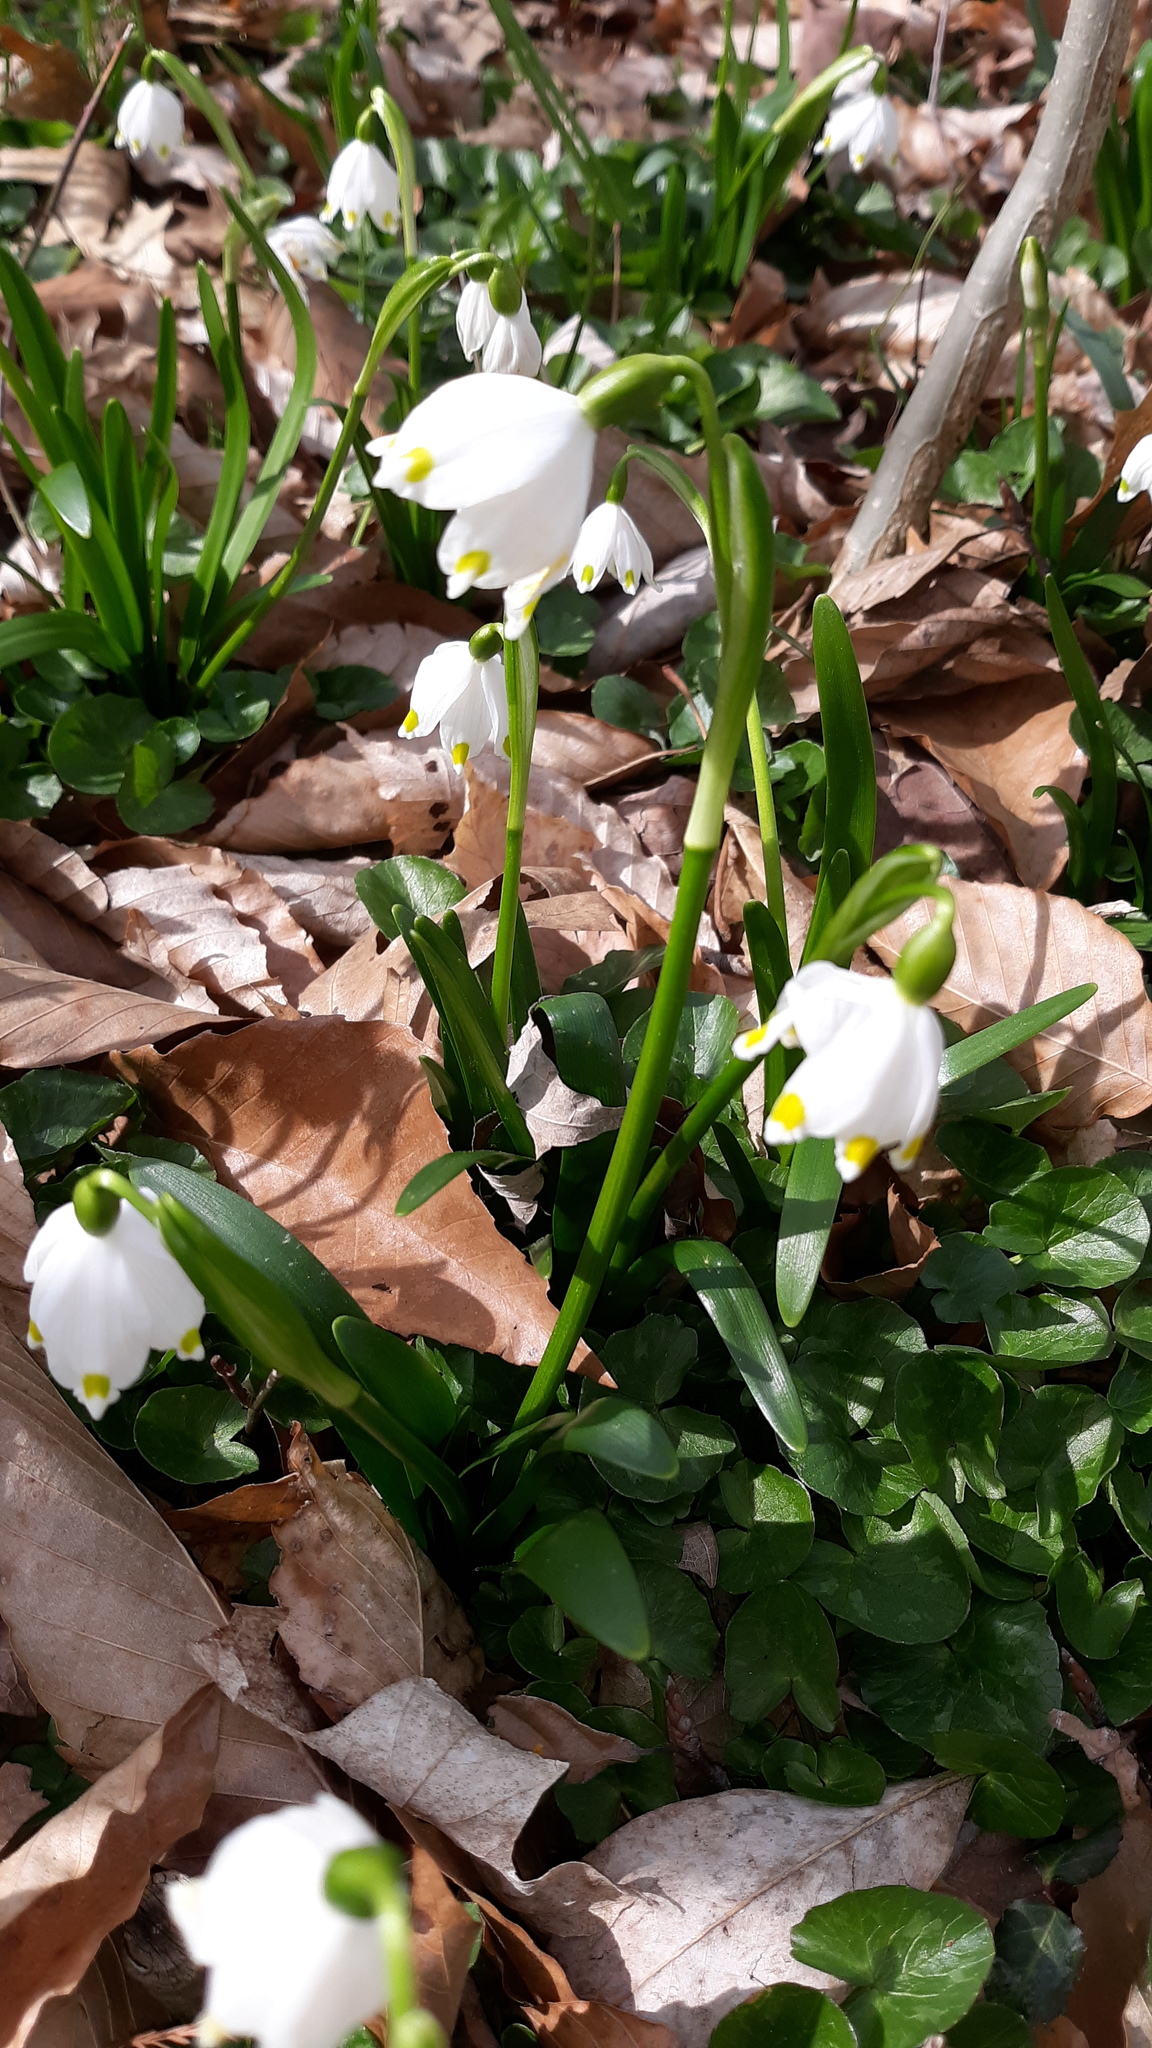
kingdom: Plantae
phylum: Tracheophyta
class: Liliopsida
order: Asparagales
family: Amaryllidaceae
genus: Leucojum
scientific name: Leucojum vernum
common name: Spring snowflake
